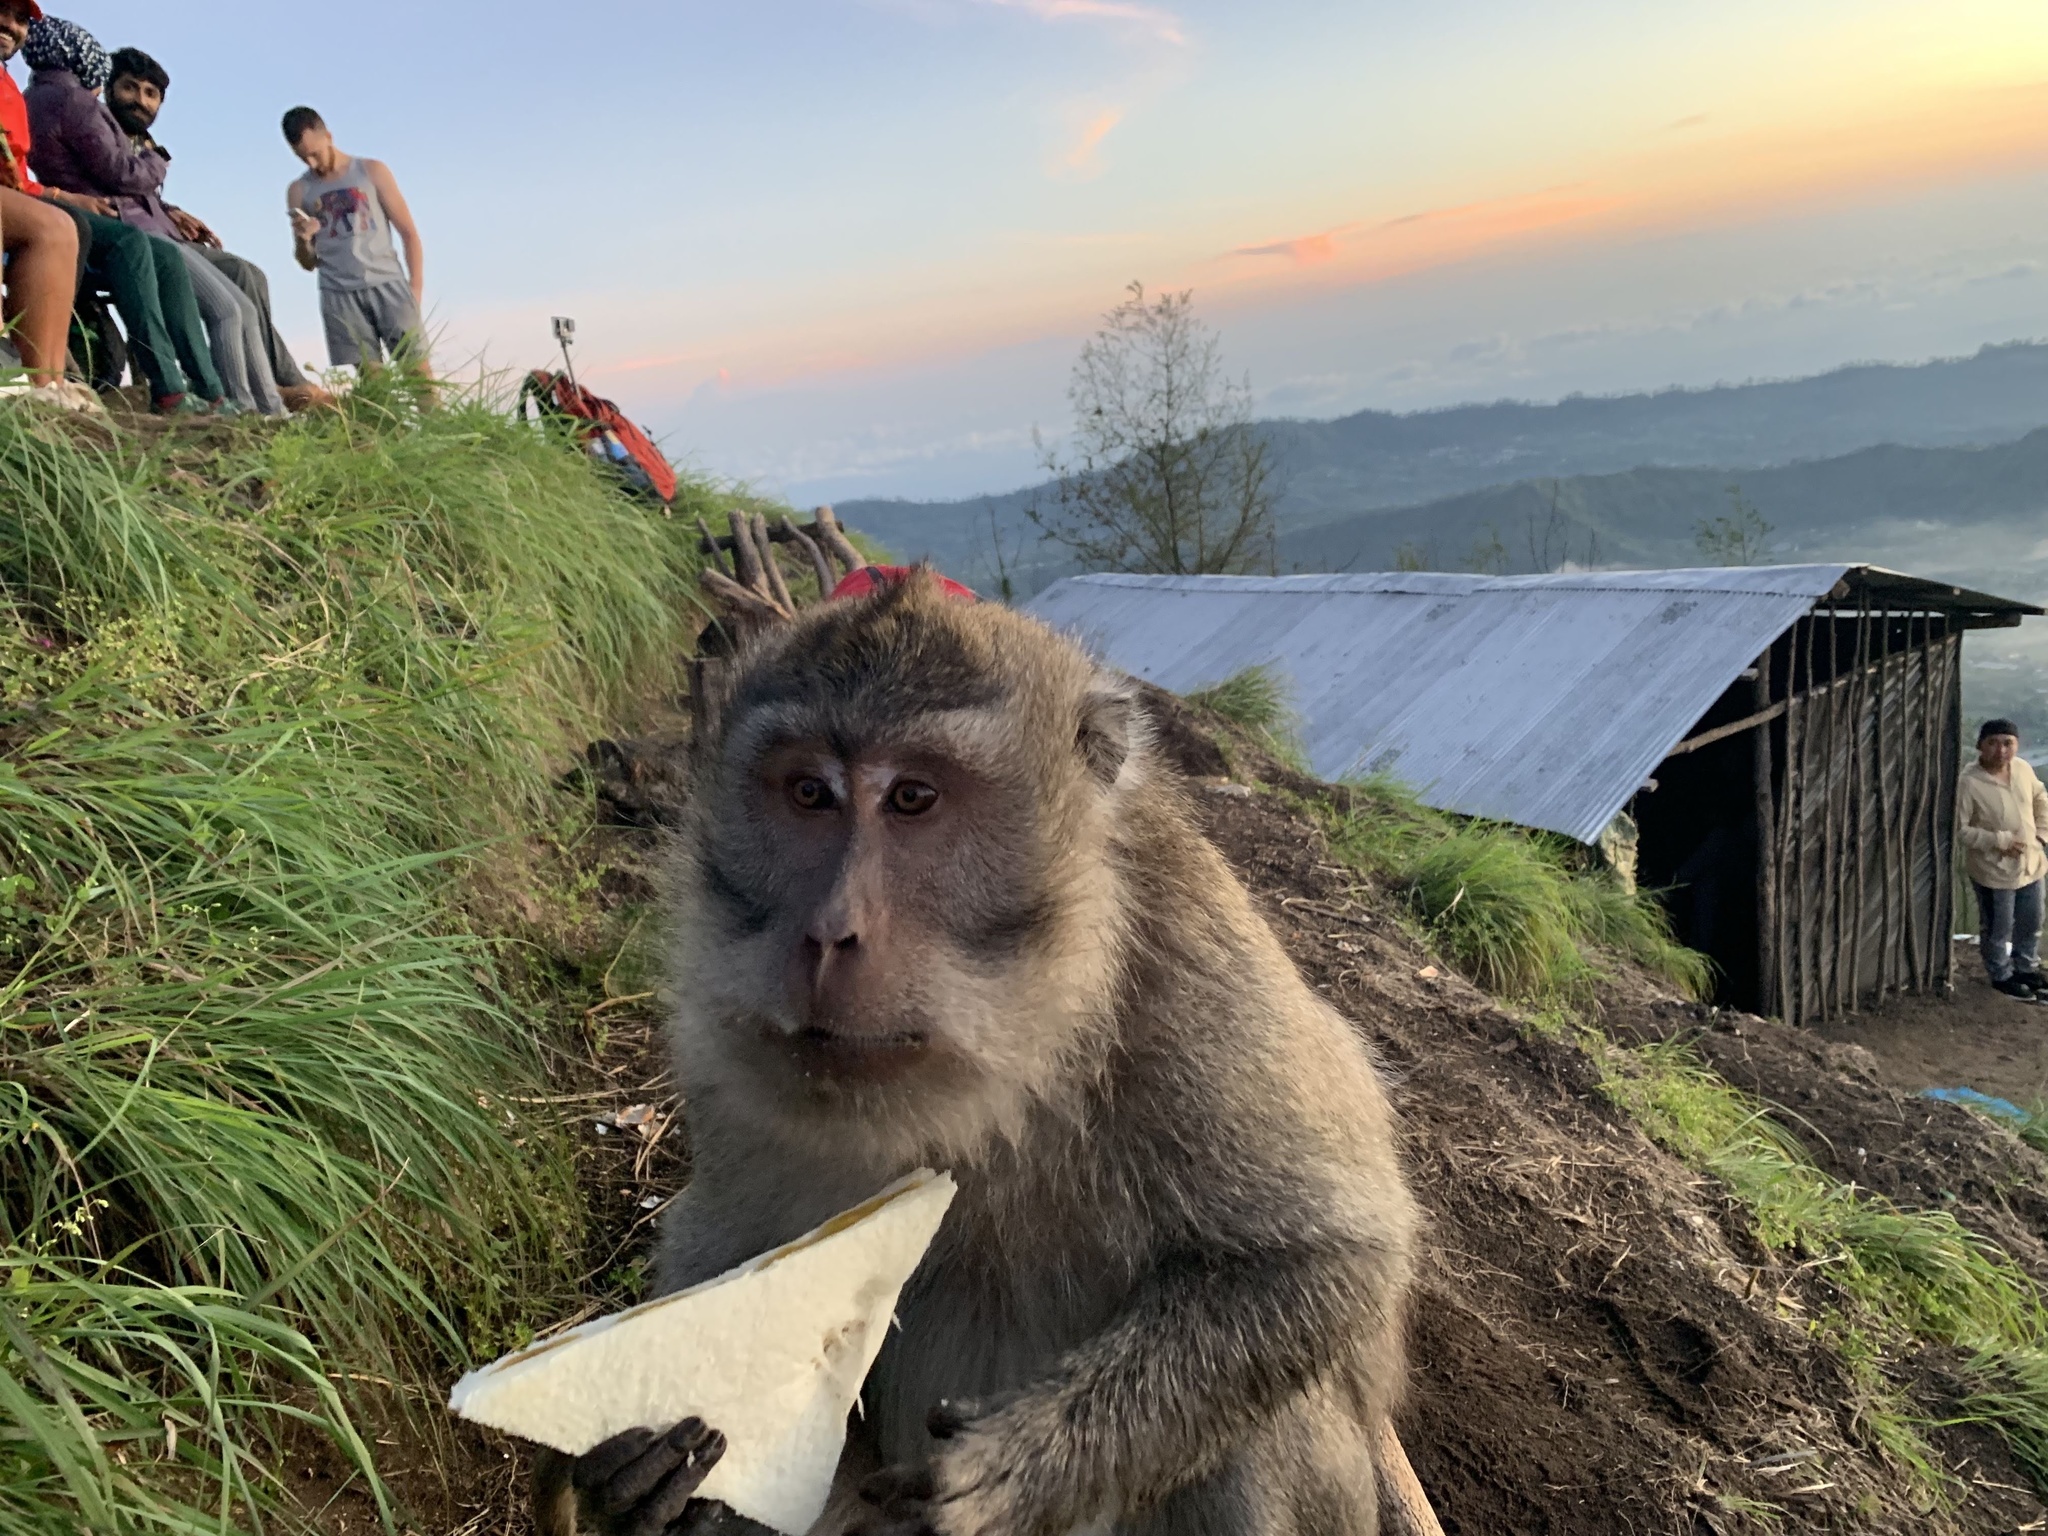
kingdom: Animalia
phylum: Chordata
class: Mammalia
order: Primates
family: Cercopithecidae
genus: Macaca
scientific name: Macaca fascicularis
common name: Crab-eating macaque
